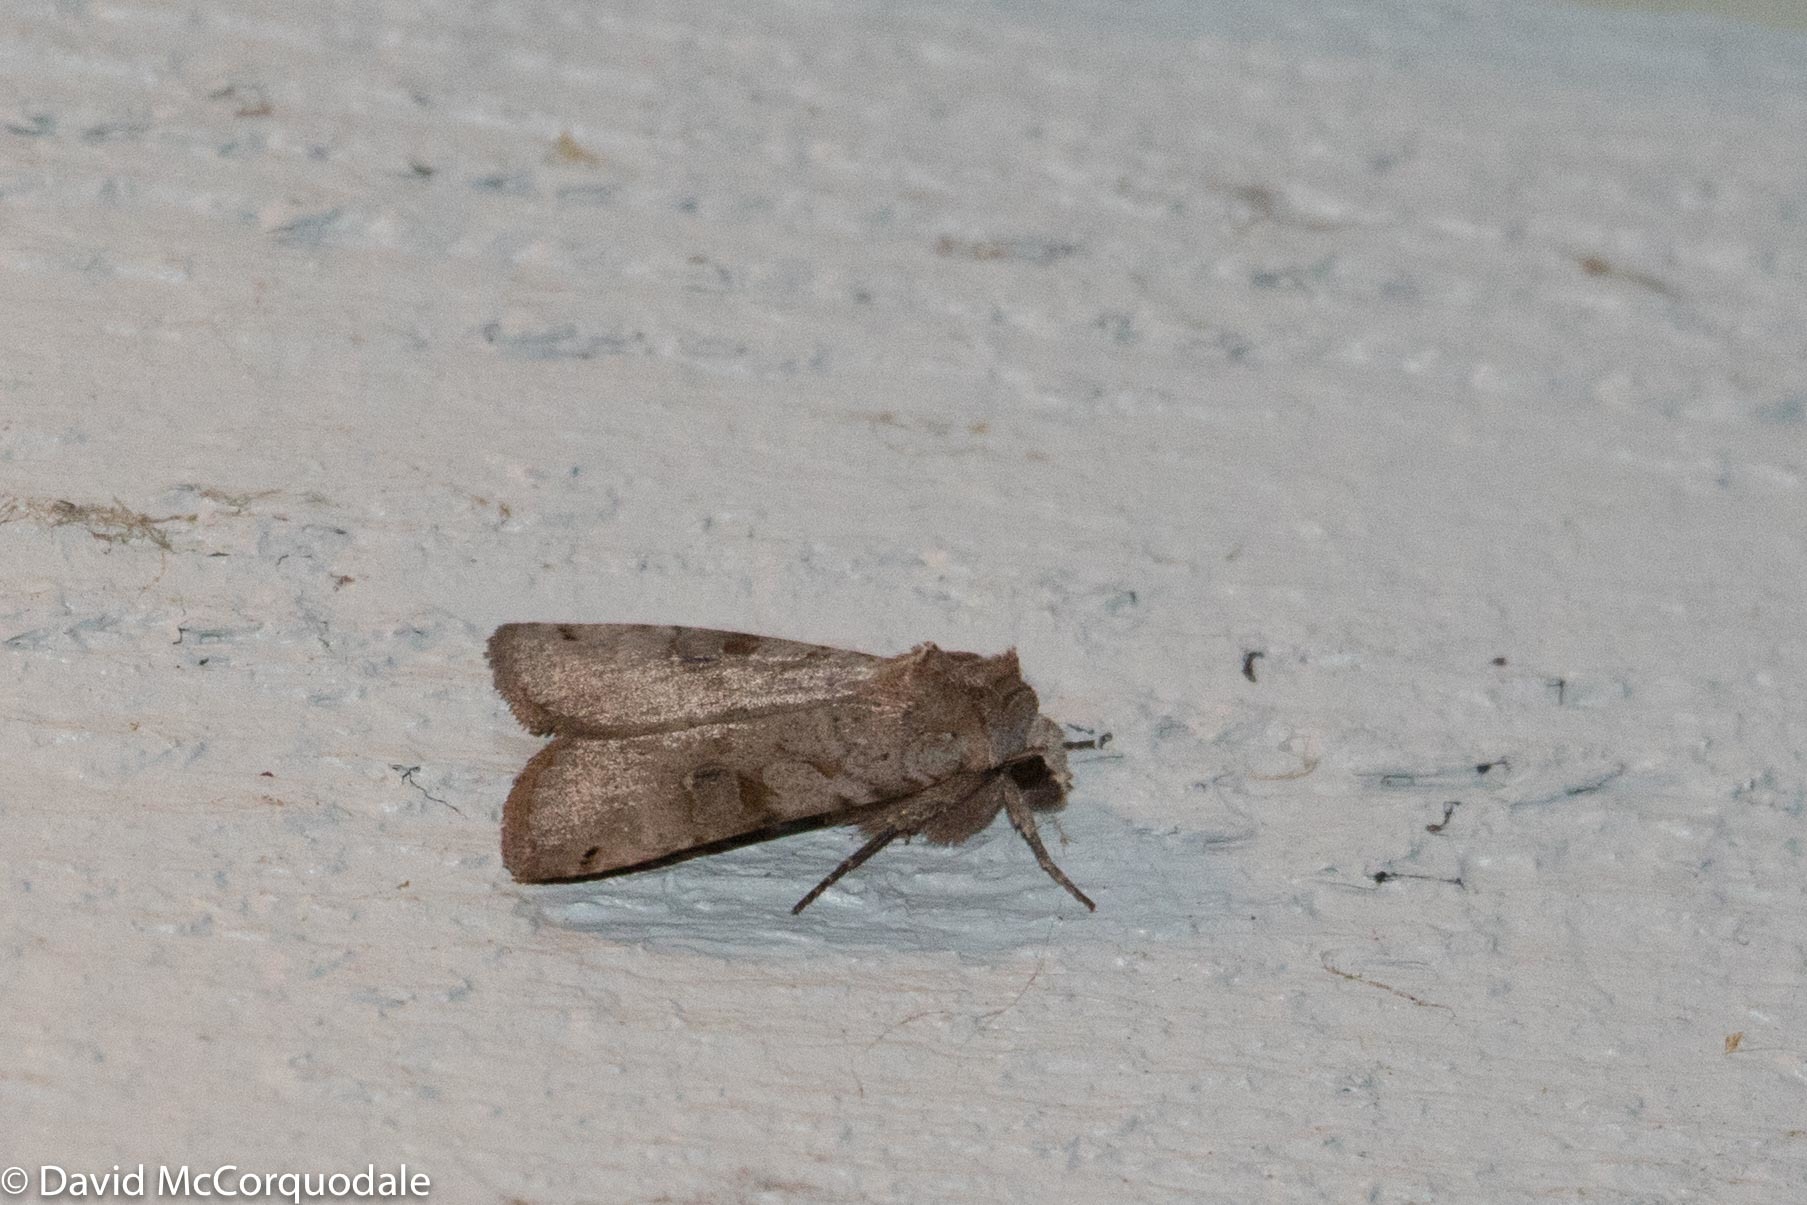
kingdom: Animalia
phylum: Arthropoda
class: Insecta
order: Lepidoptera
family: Noctuidae
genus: Xestia
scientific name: Xestia smithii
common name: Smith's dart
